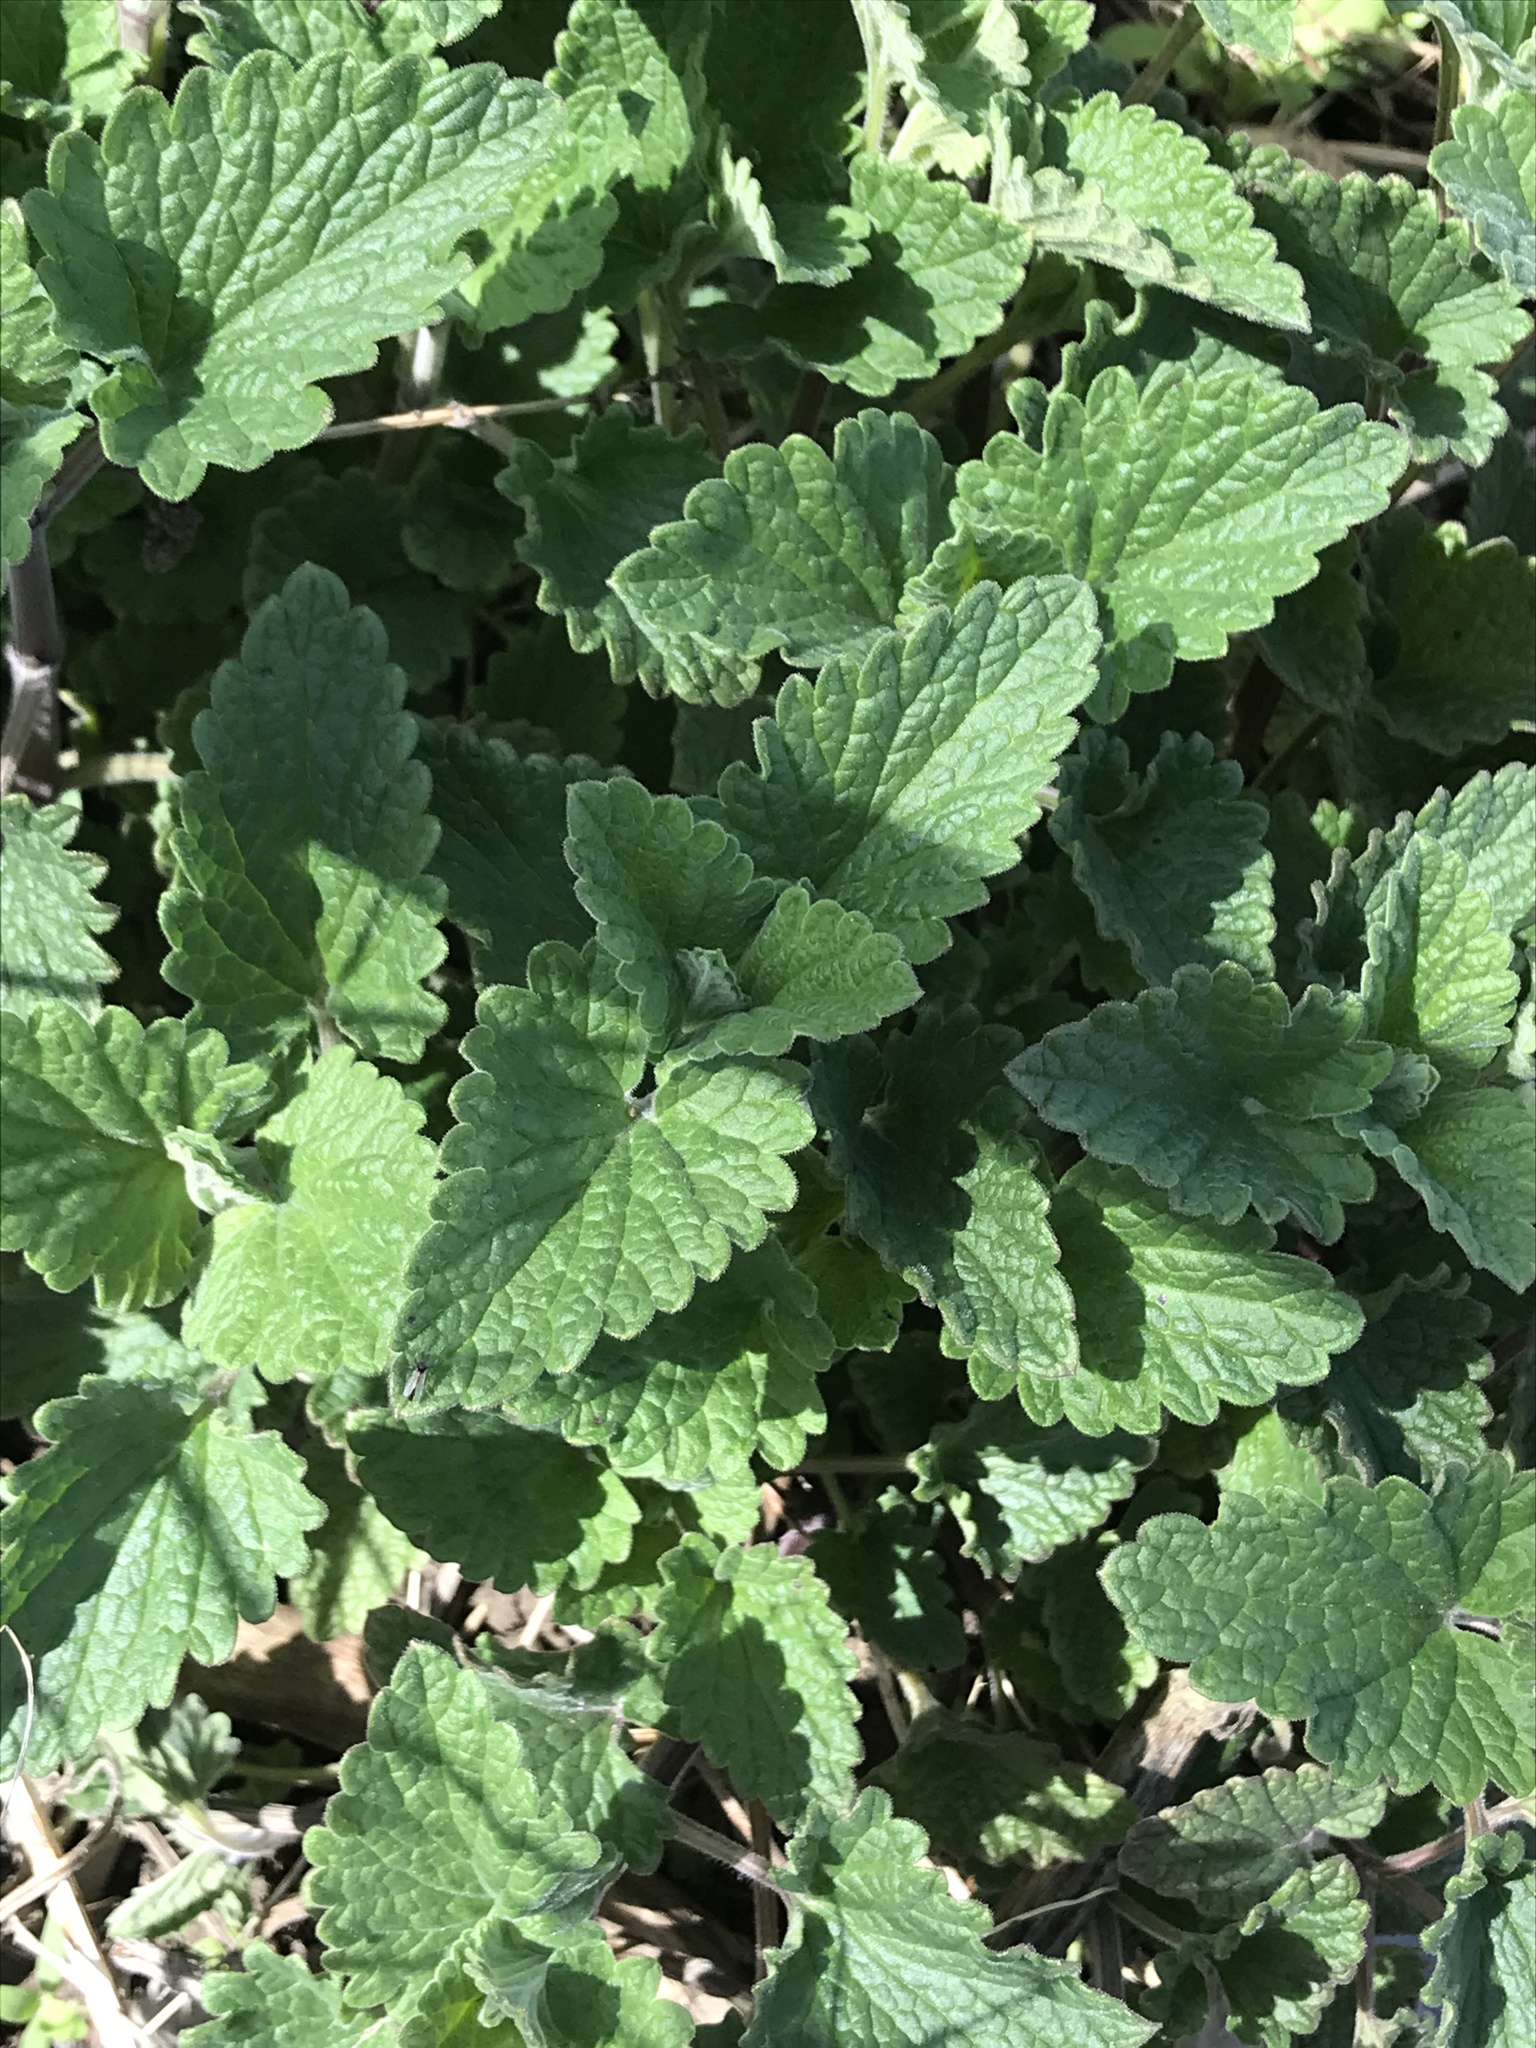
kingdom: Plantae
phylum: Tracheophyta
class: Magnoliopsida
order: Lamiales
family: Lamiaceae
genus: Nepeta
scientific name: Nepeta cataria
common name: Catnip
